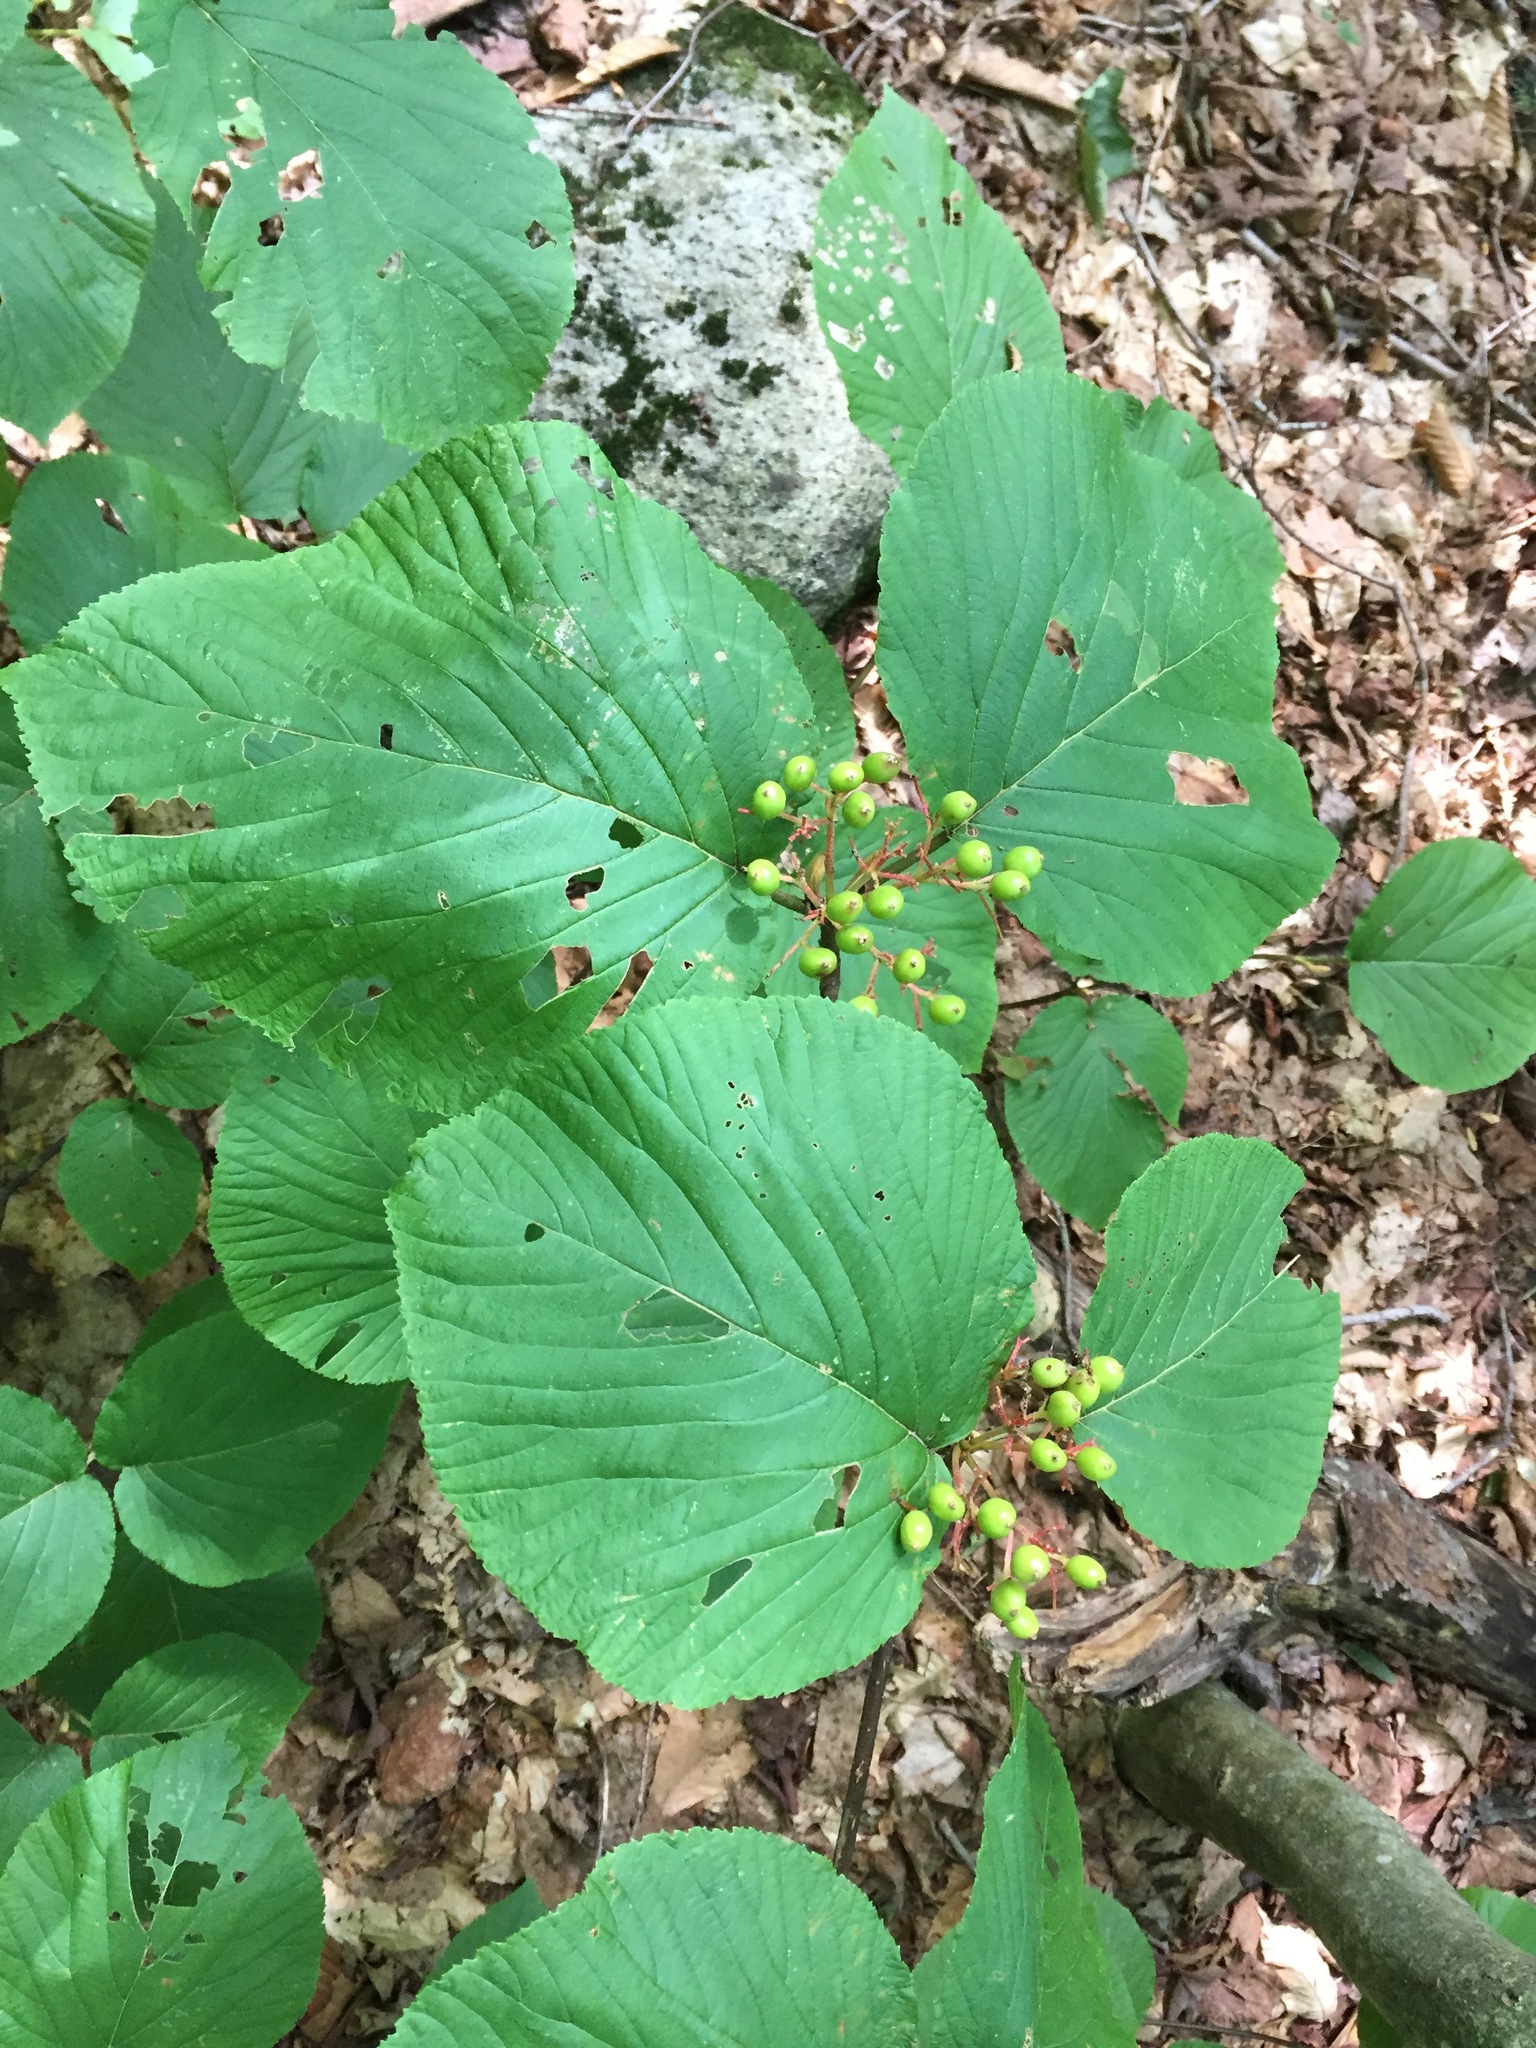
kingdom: Plantae
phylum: Tracheophyta
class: Magnoliopsida
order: Dipsacales
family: Viburnaceae
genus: Viburnum
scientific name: Viburnum lantanoides
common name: Hobblebush
